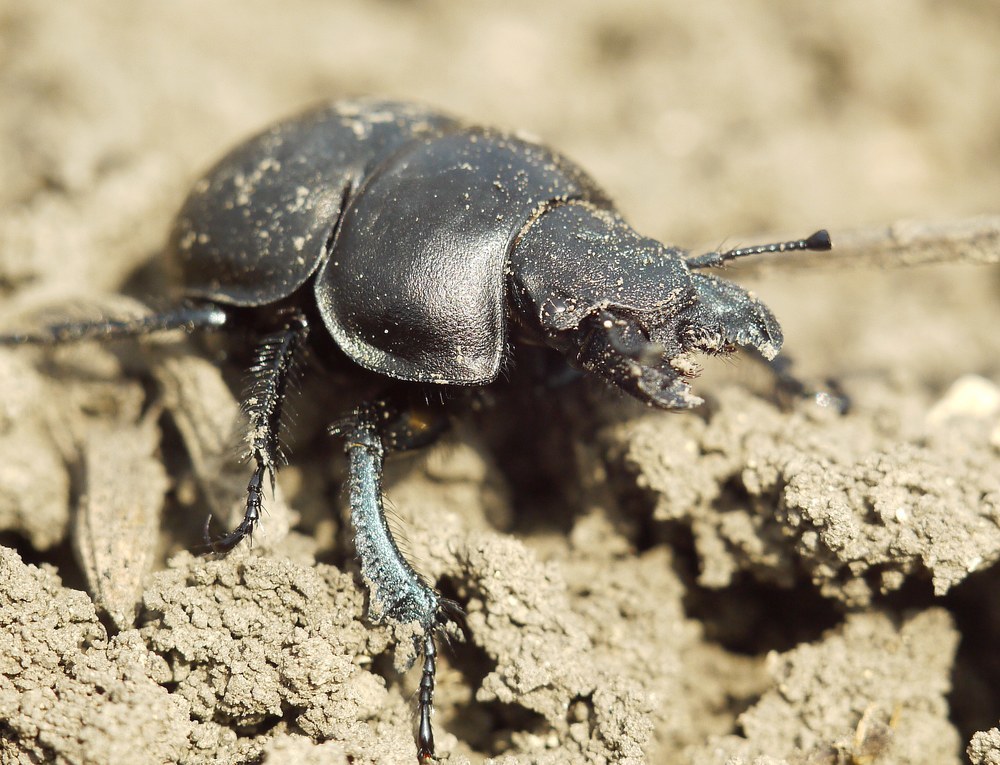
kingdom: Animalia
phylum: Arthropoda
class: Insecta
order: Coleoptera
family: Geotrupidae
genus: Lethrus
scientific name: Lethrus apterus
